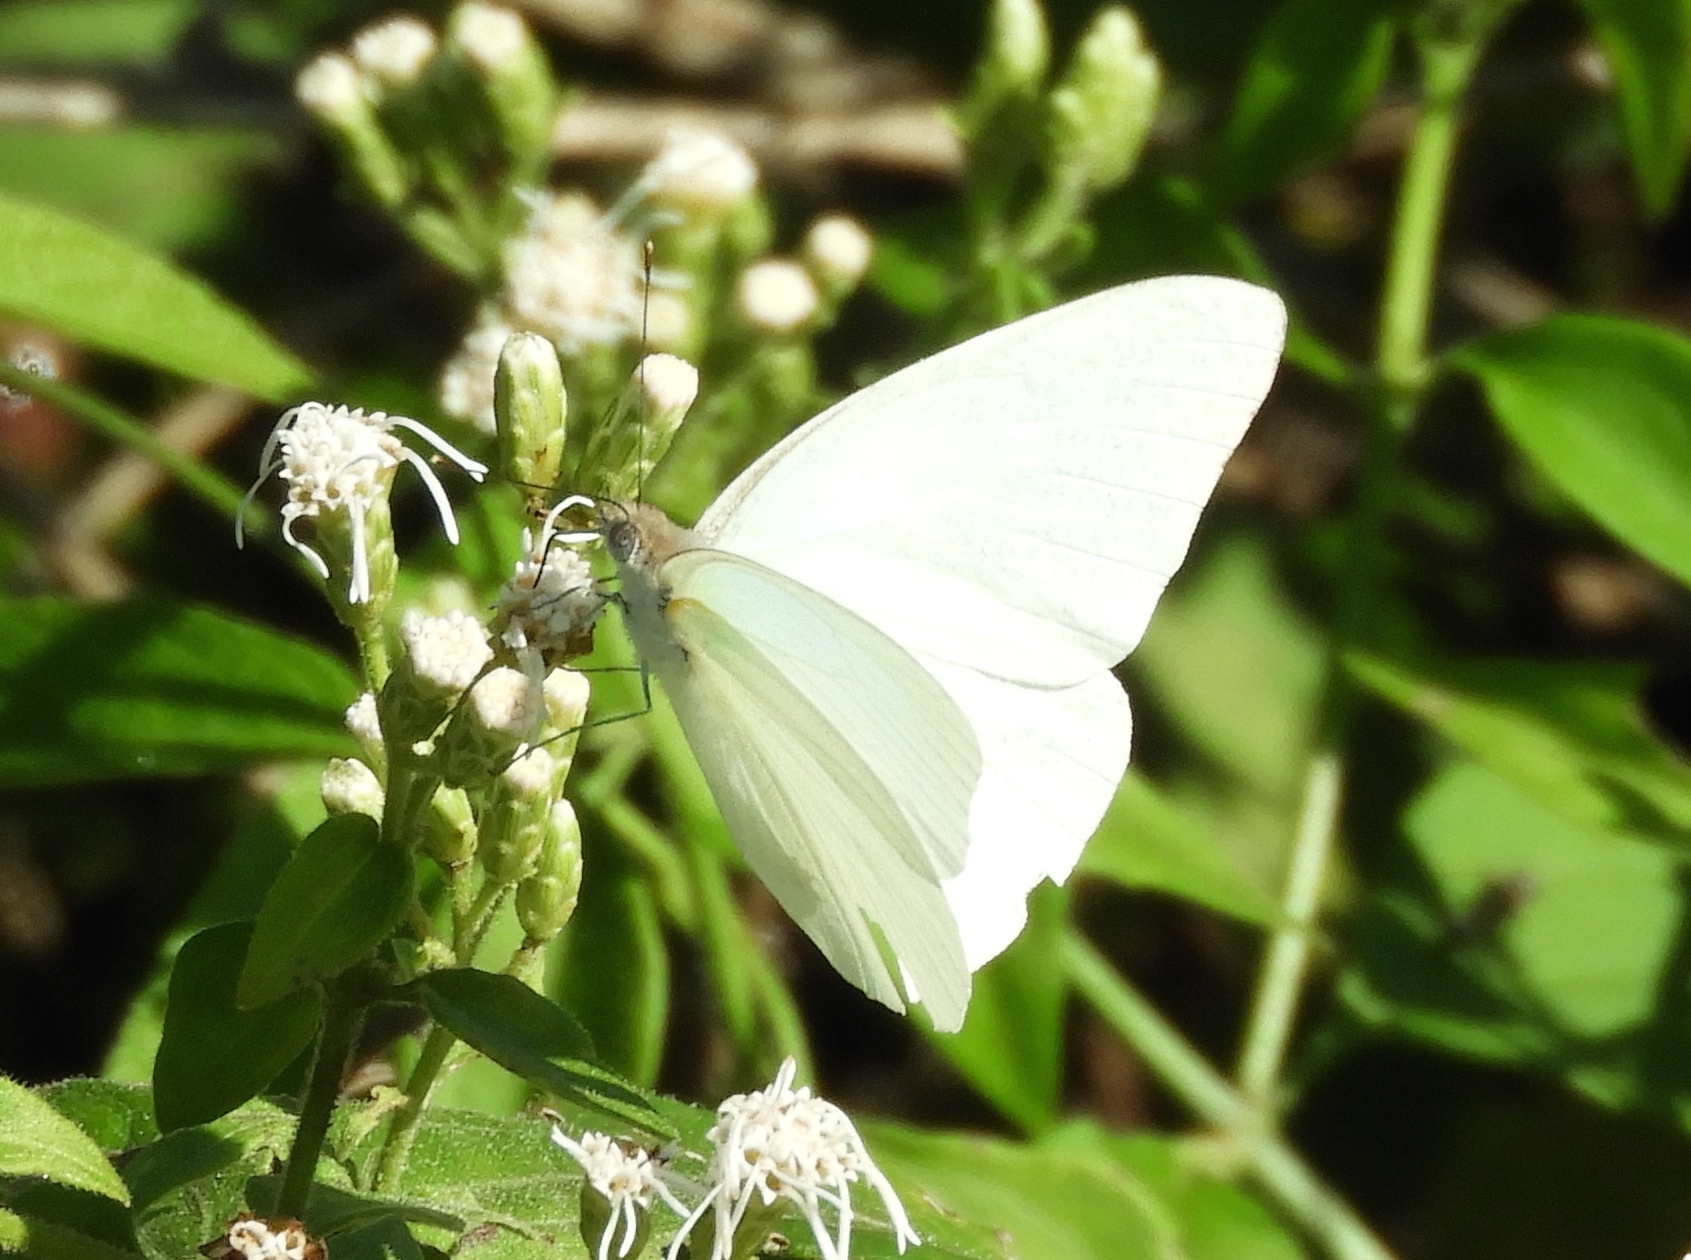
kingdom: Animalia
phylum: Arthropoda
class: Insecta
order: Lepidoptera
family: Pieridae
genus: Glutophrissa
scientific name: Glutophrissa drusilla
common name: Florida white
